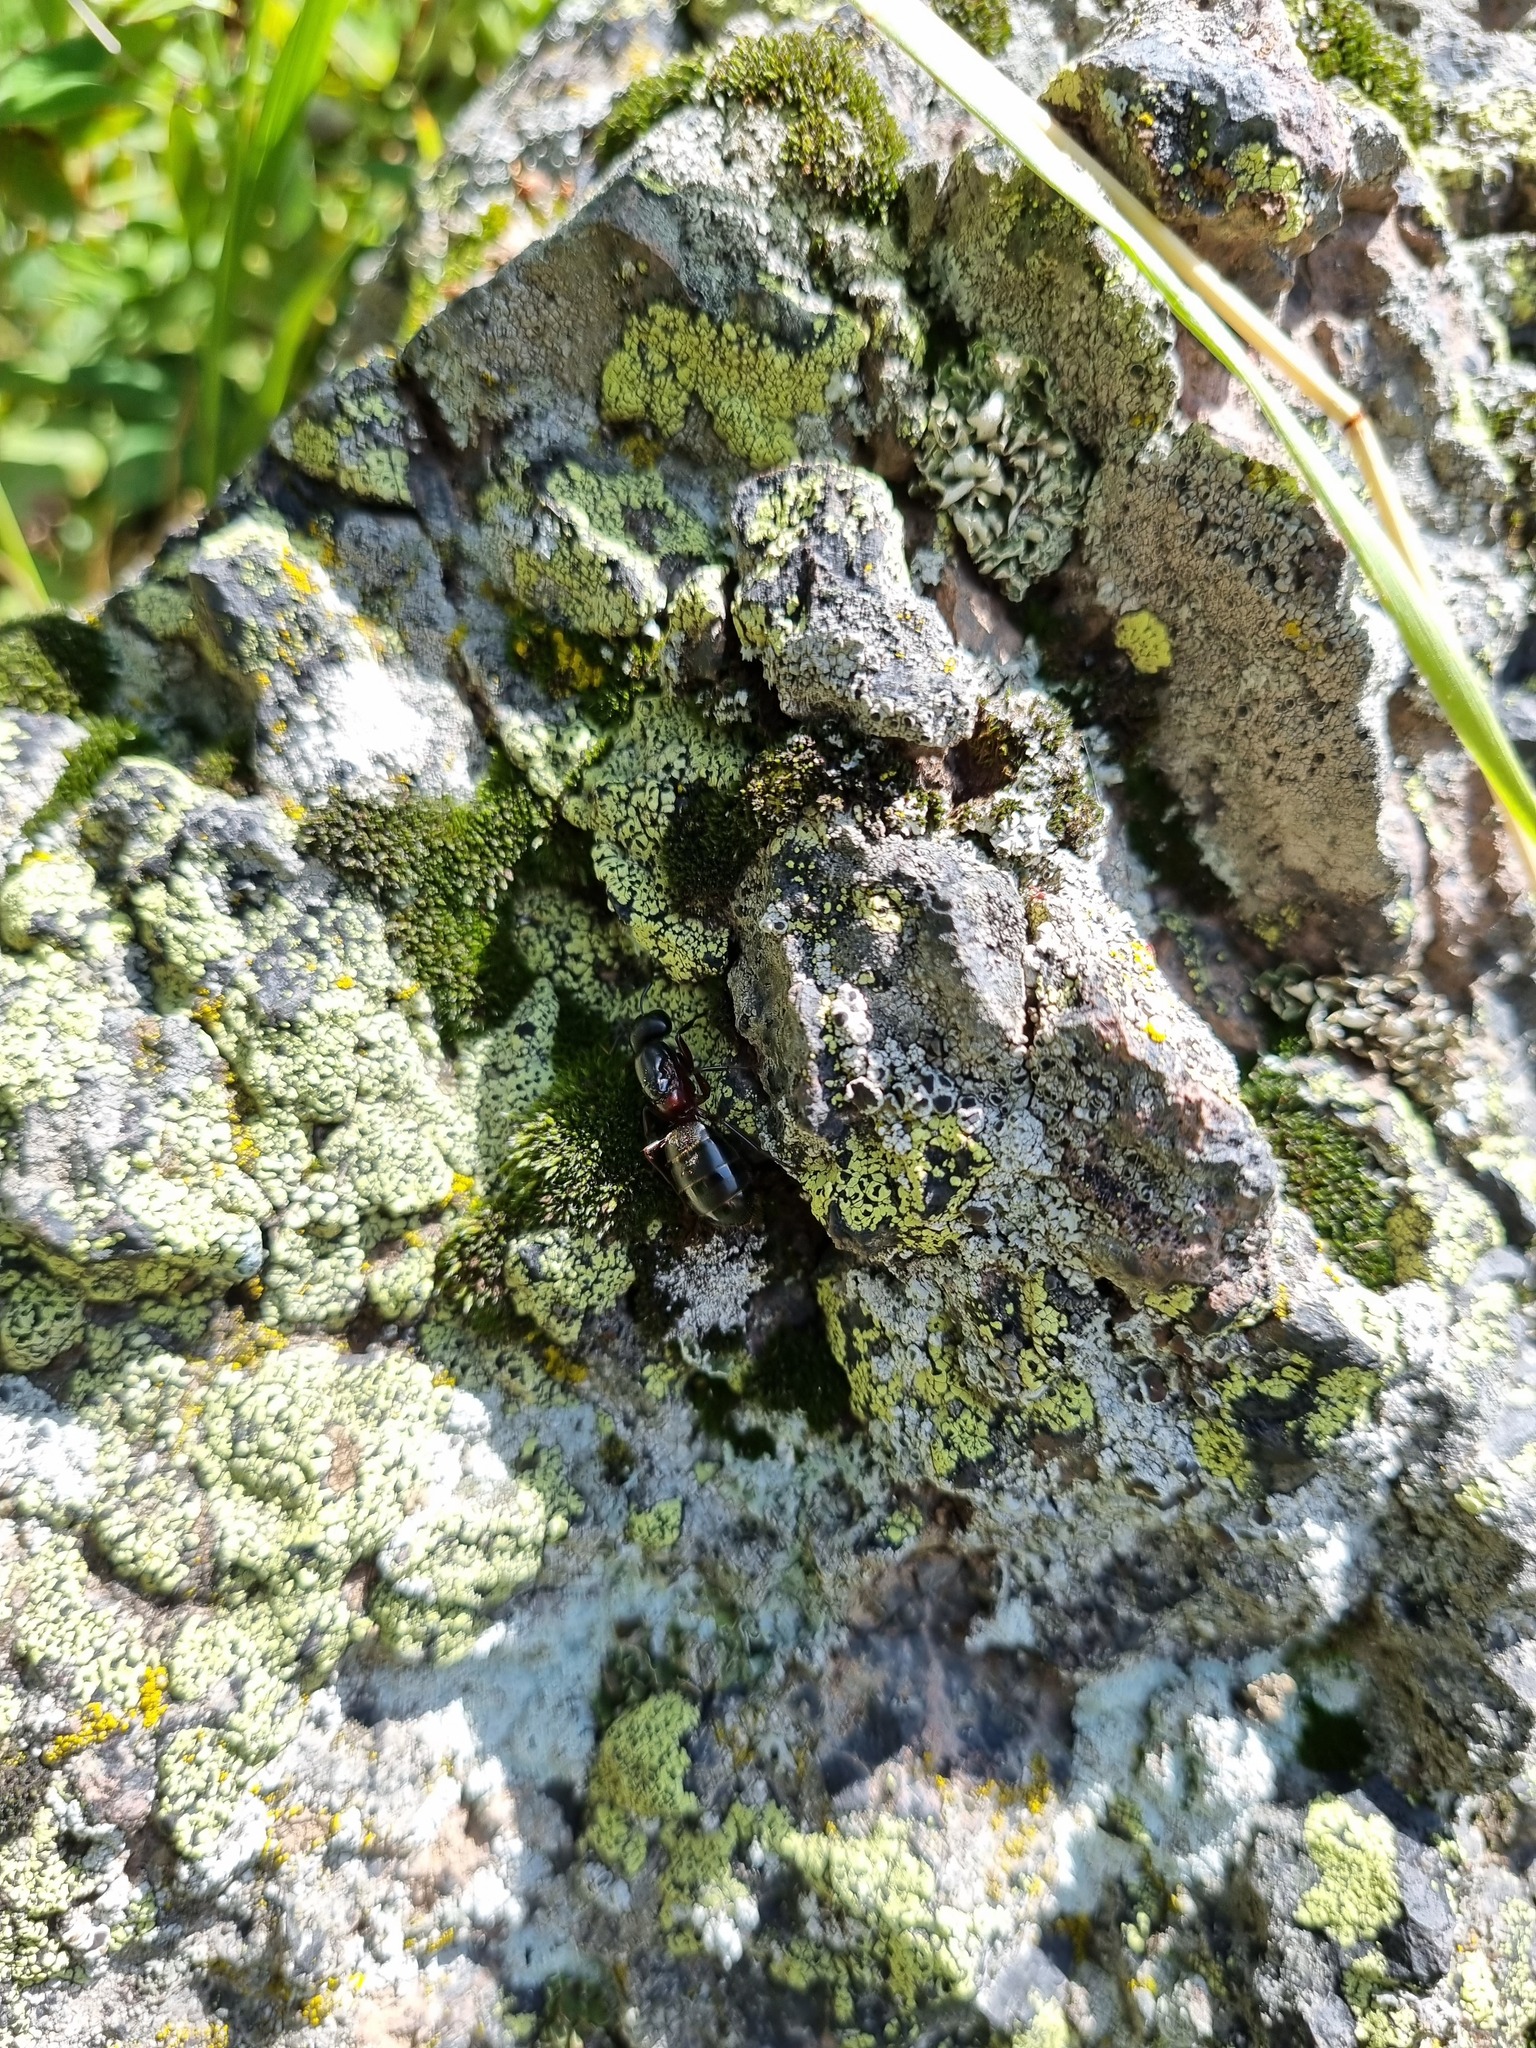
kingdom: Animalia
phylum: Arthropoda
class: Insecta
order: Hymenoptera
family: Formicidae
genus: Camponotus
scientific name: Camponotus herculeanus
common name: Hercules ant
